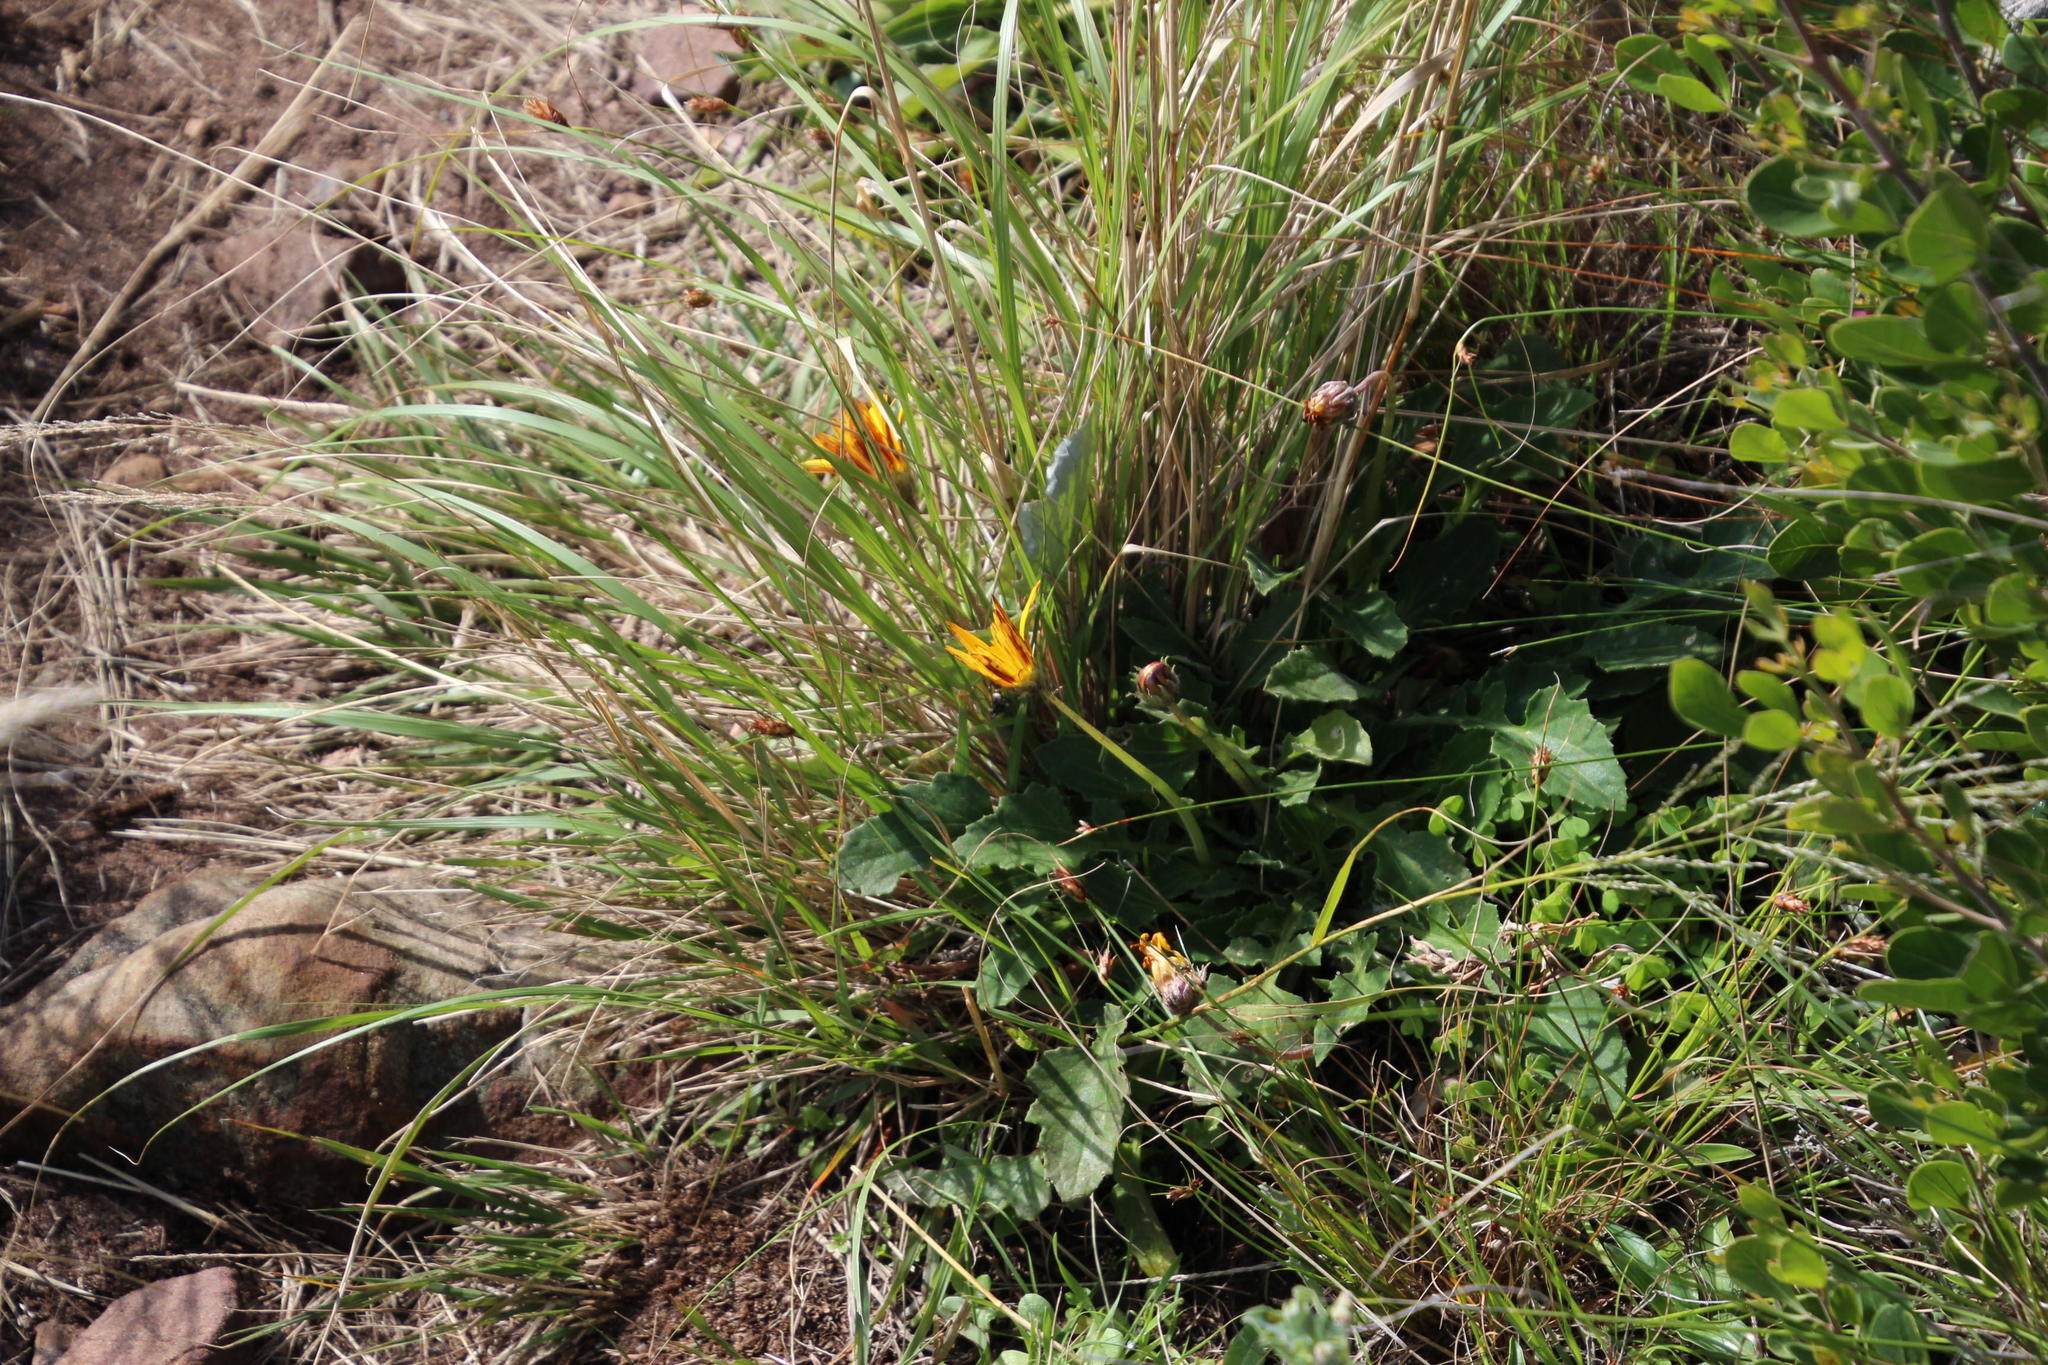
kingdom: Plantae
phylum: Tracheophyta
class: Magnoliopsida
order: Asterales
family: Asteraceae
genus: Arctotheca
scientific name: Arctotheca calendula
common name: Capeweed
